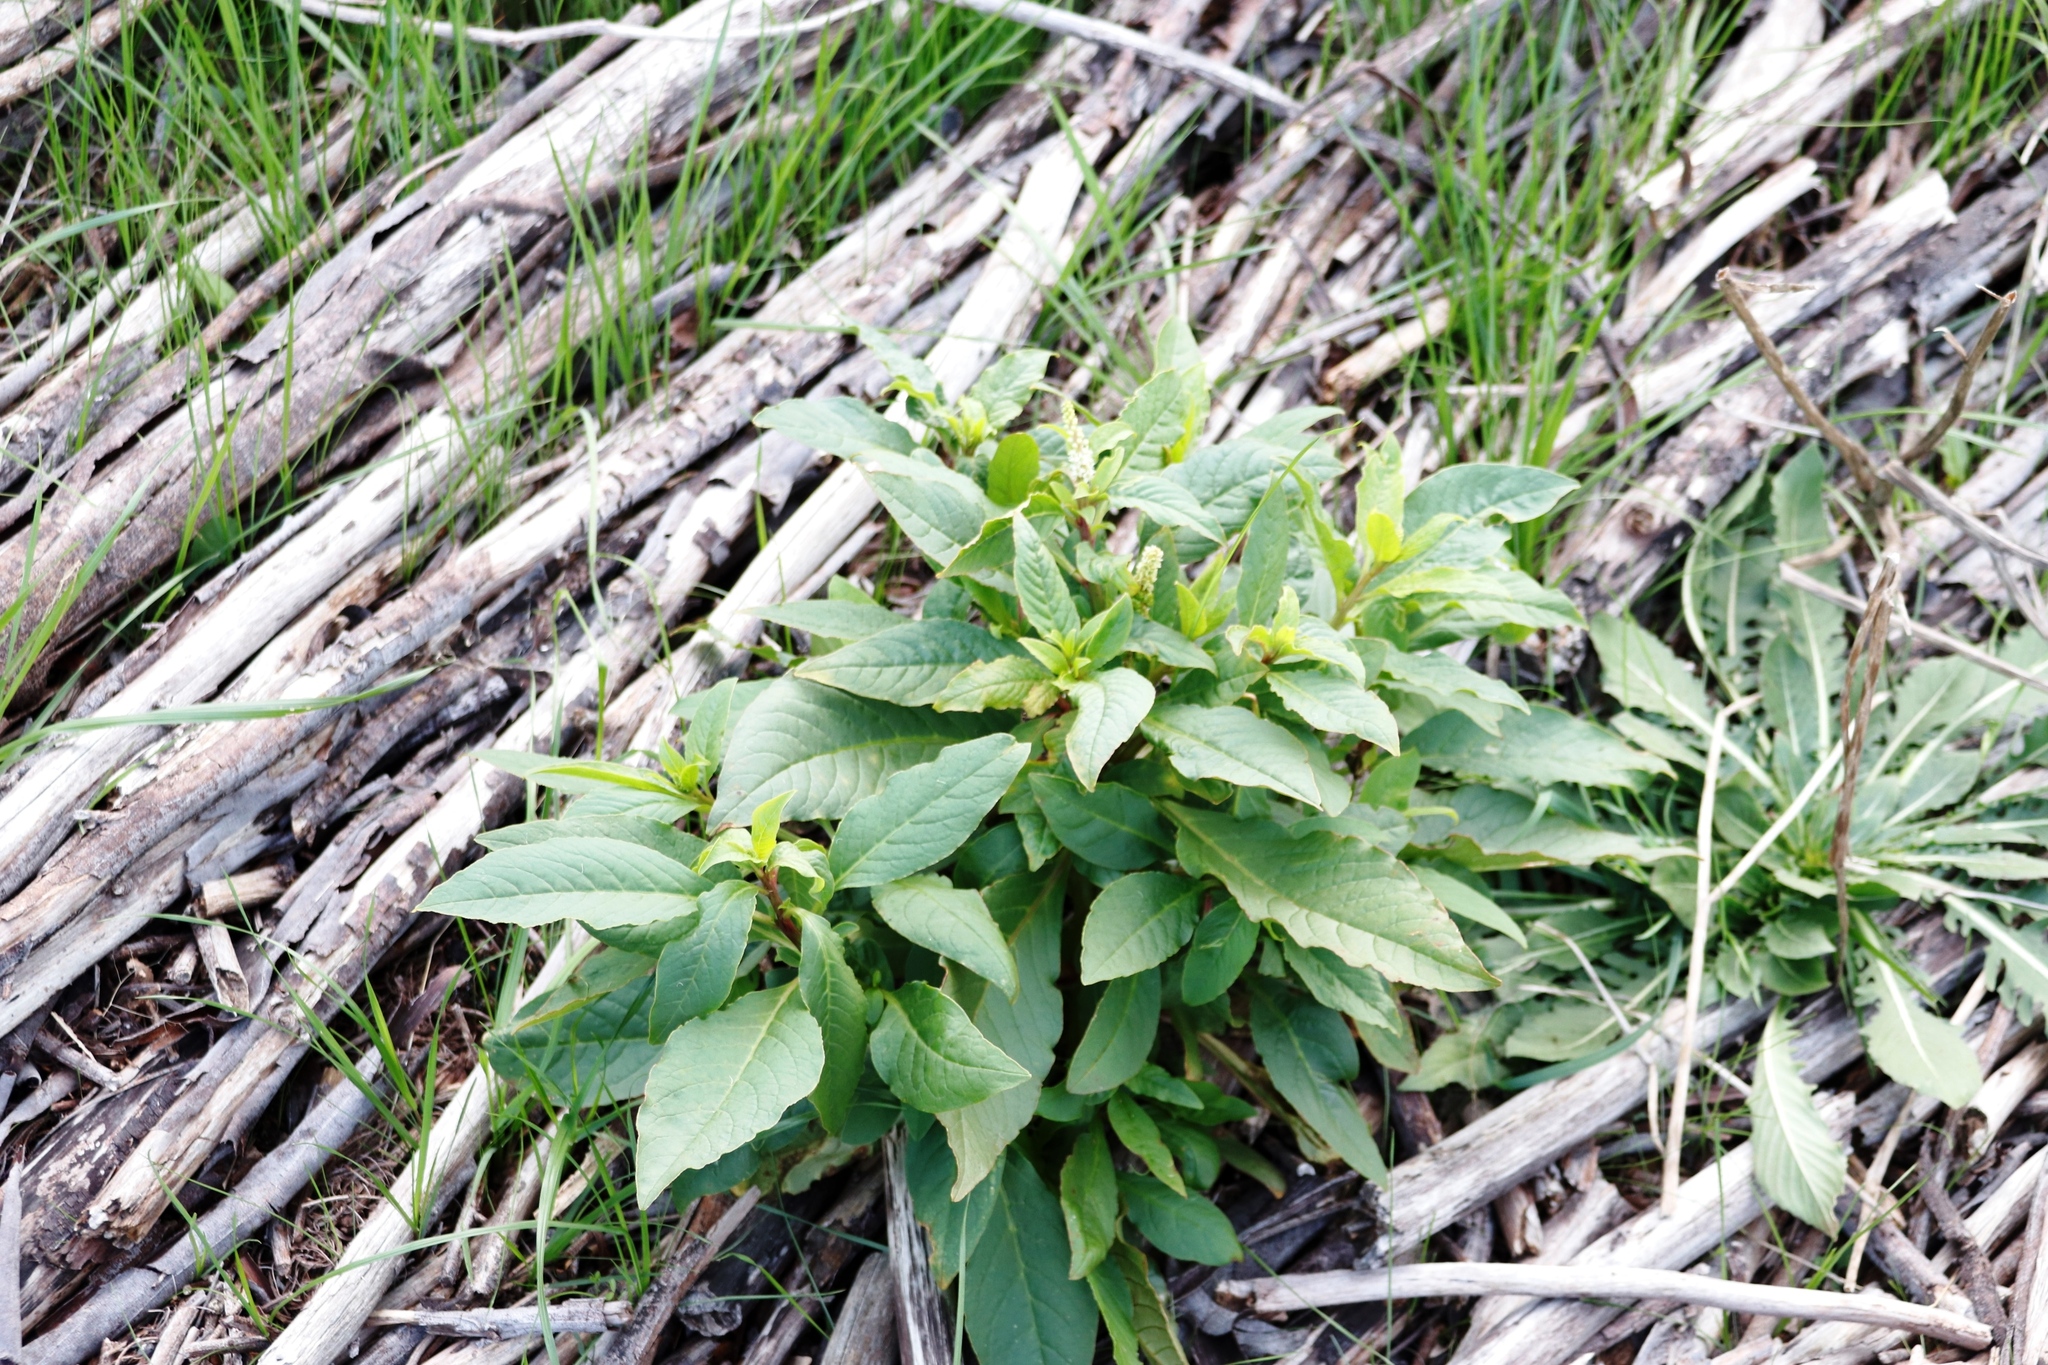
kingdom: Plantae
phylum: Tracheophyta
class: Magnoliopsida
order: Caryophyllales
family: Phytolaccaceae
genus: Phytolacca
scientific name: Phytolacca icosandra
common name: Button pokeweed
